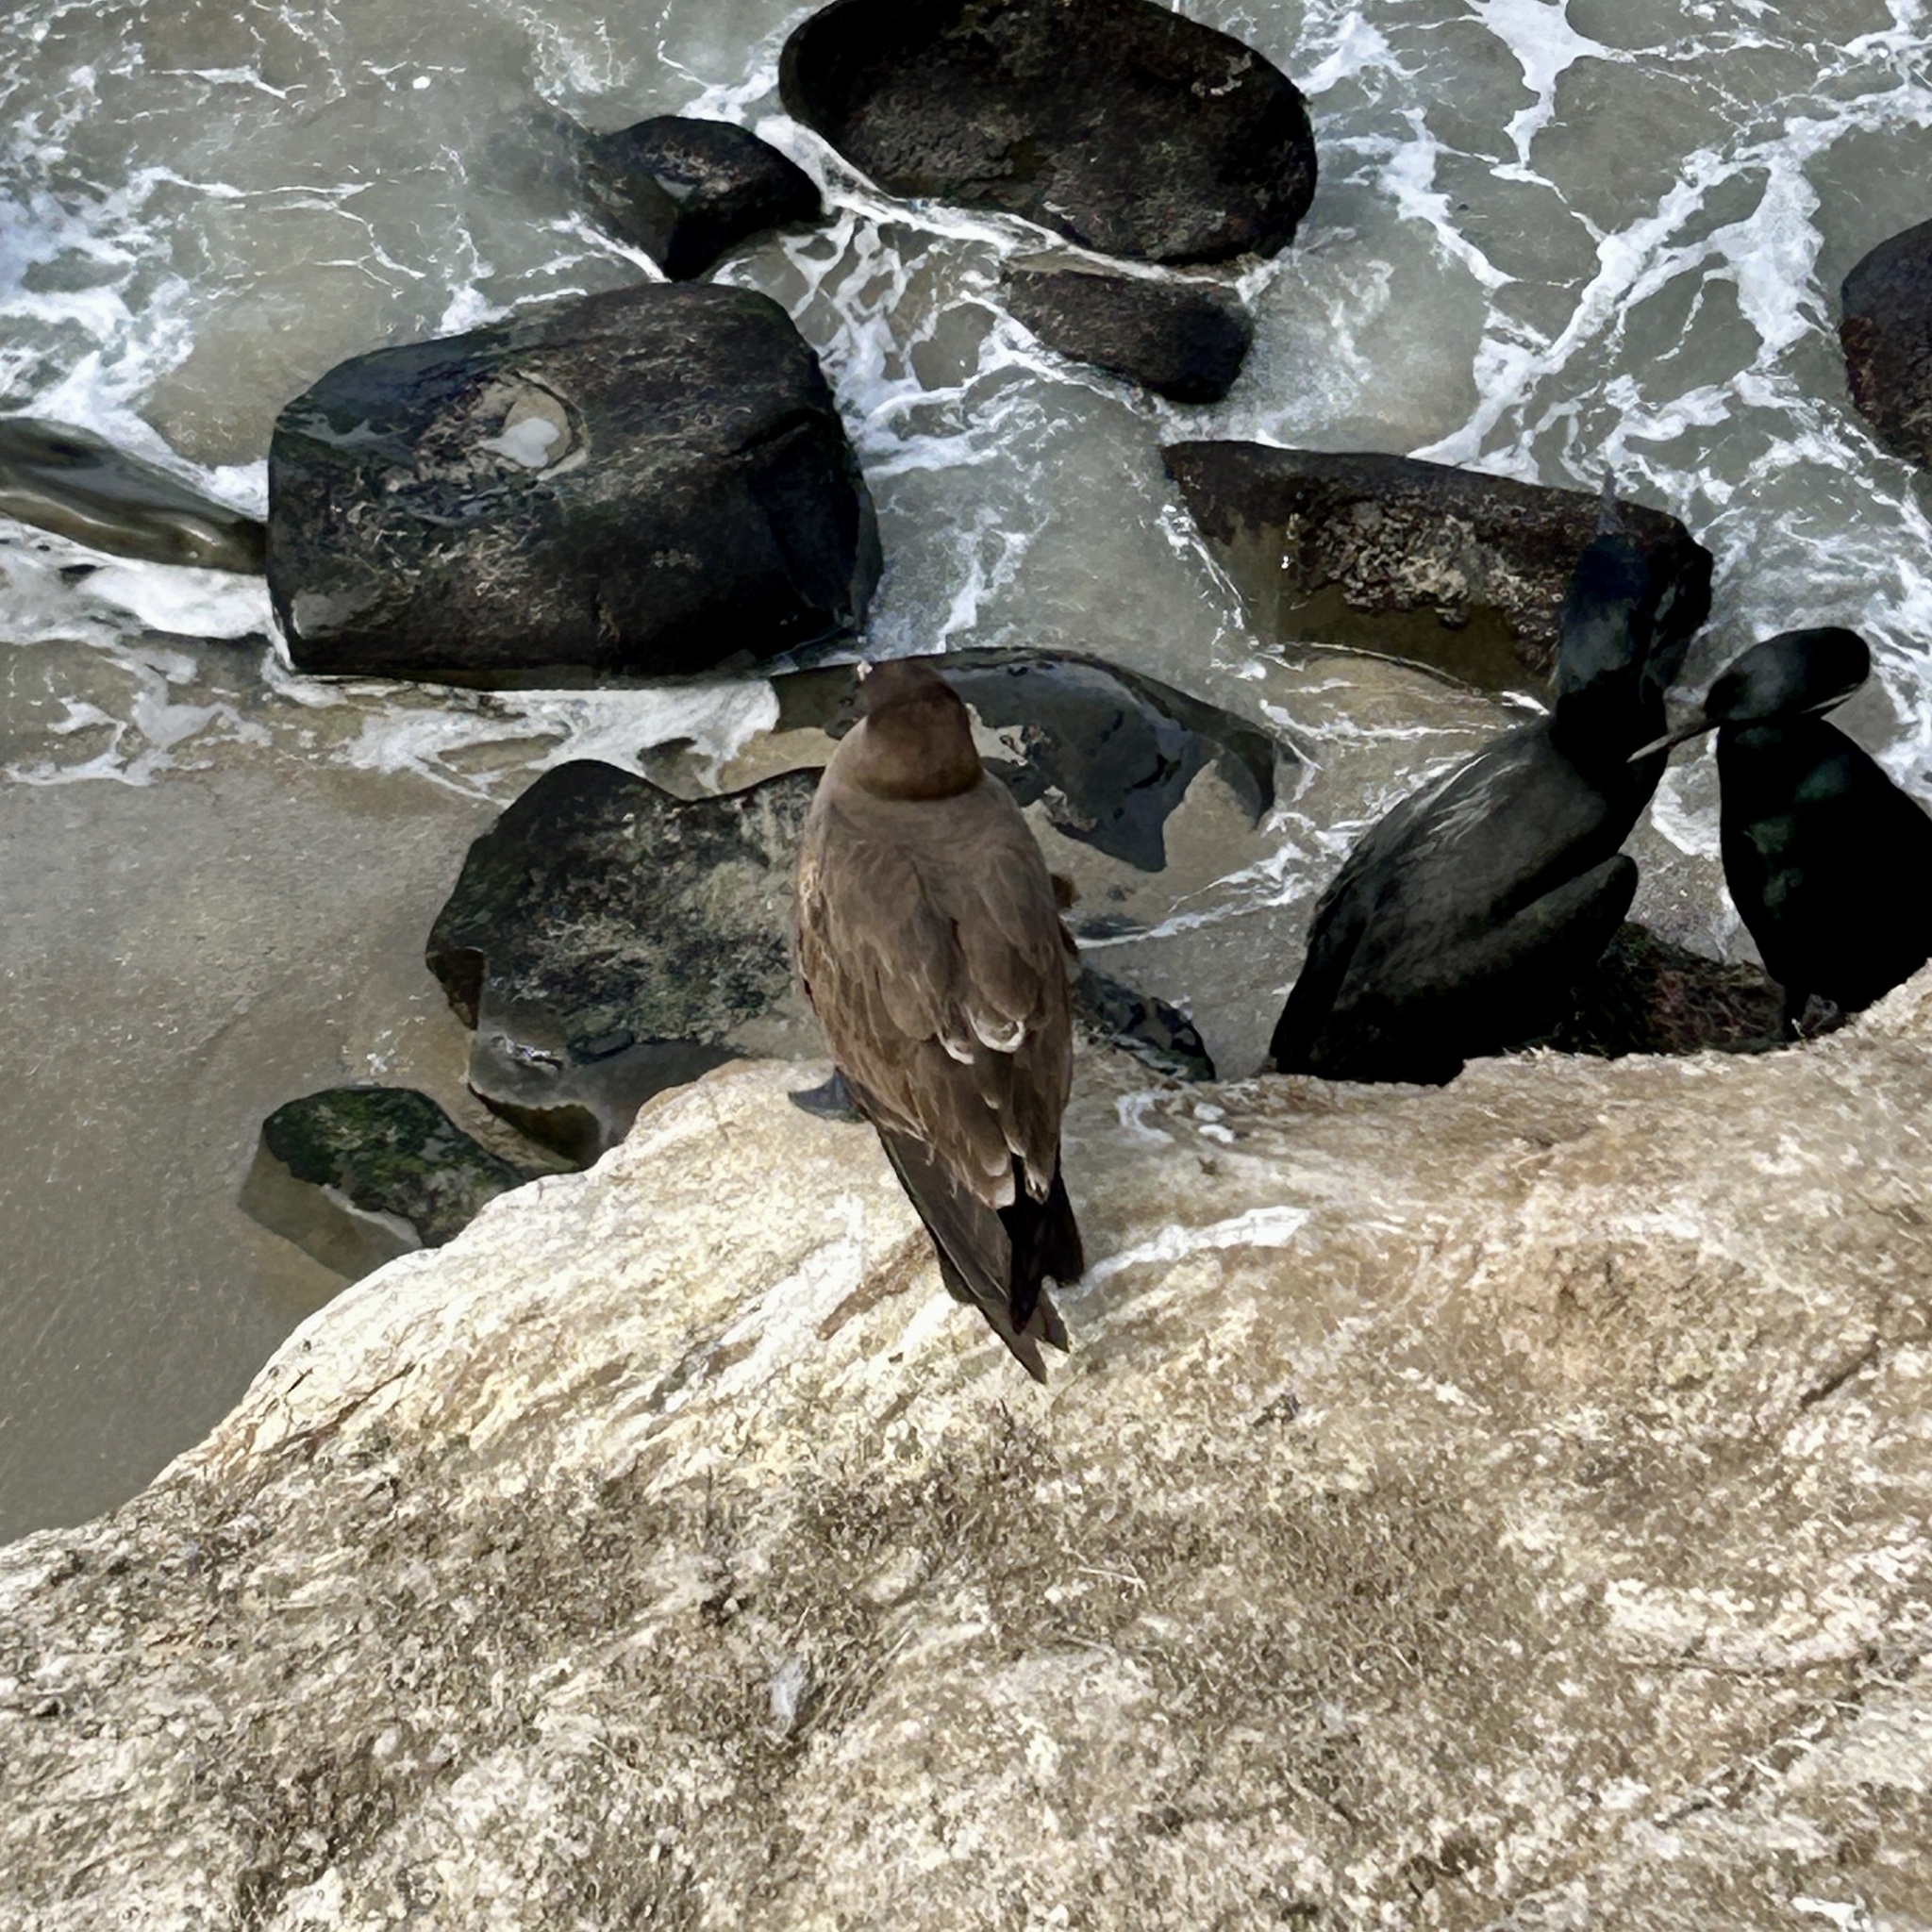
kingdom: Animalia
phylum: Chordata
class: Aves
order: Charadriiformes
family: Laridae
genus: Larus
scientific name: Larus heermanni
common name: Heermann's gull
